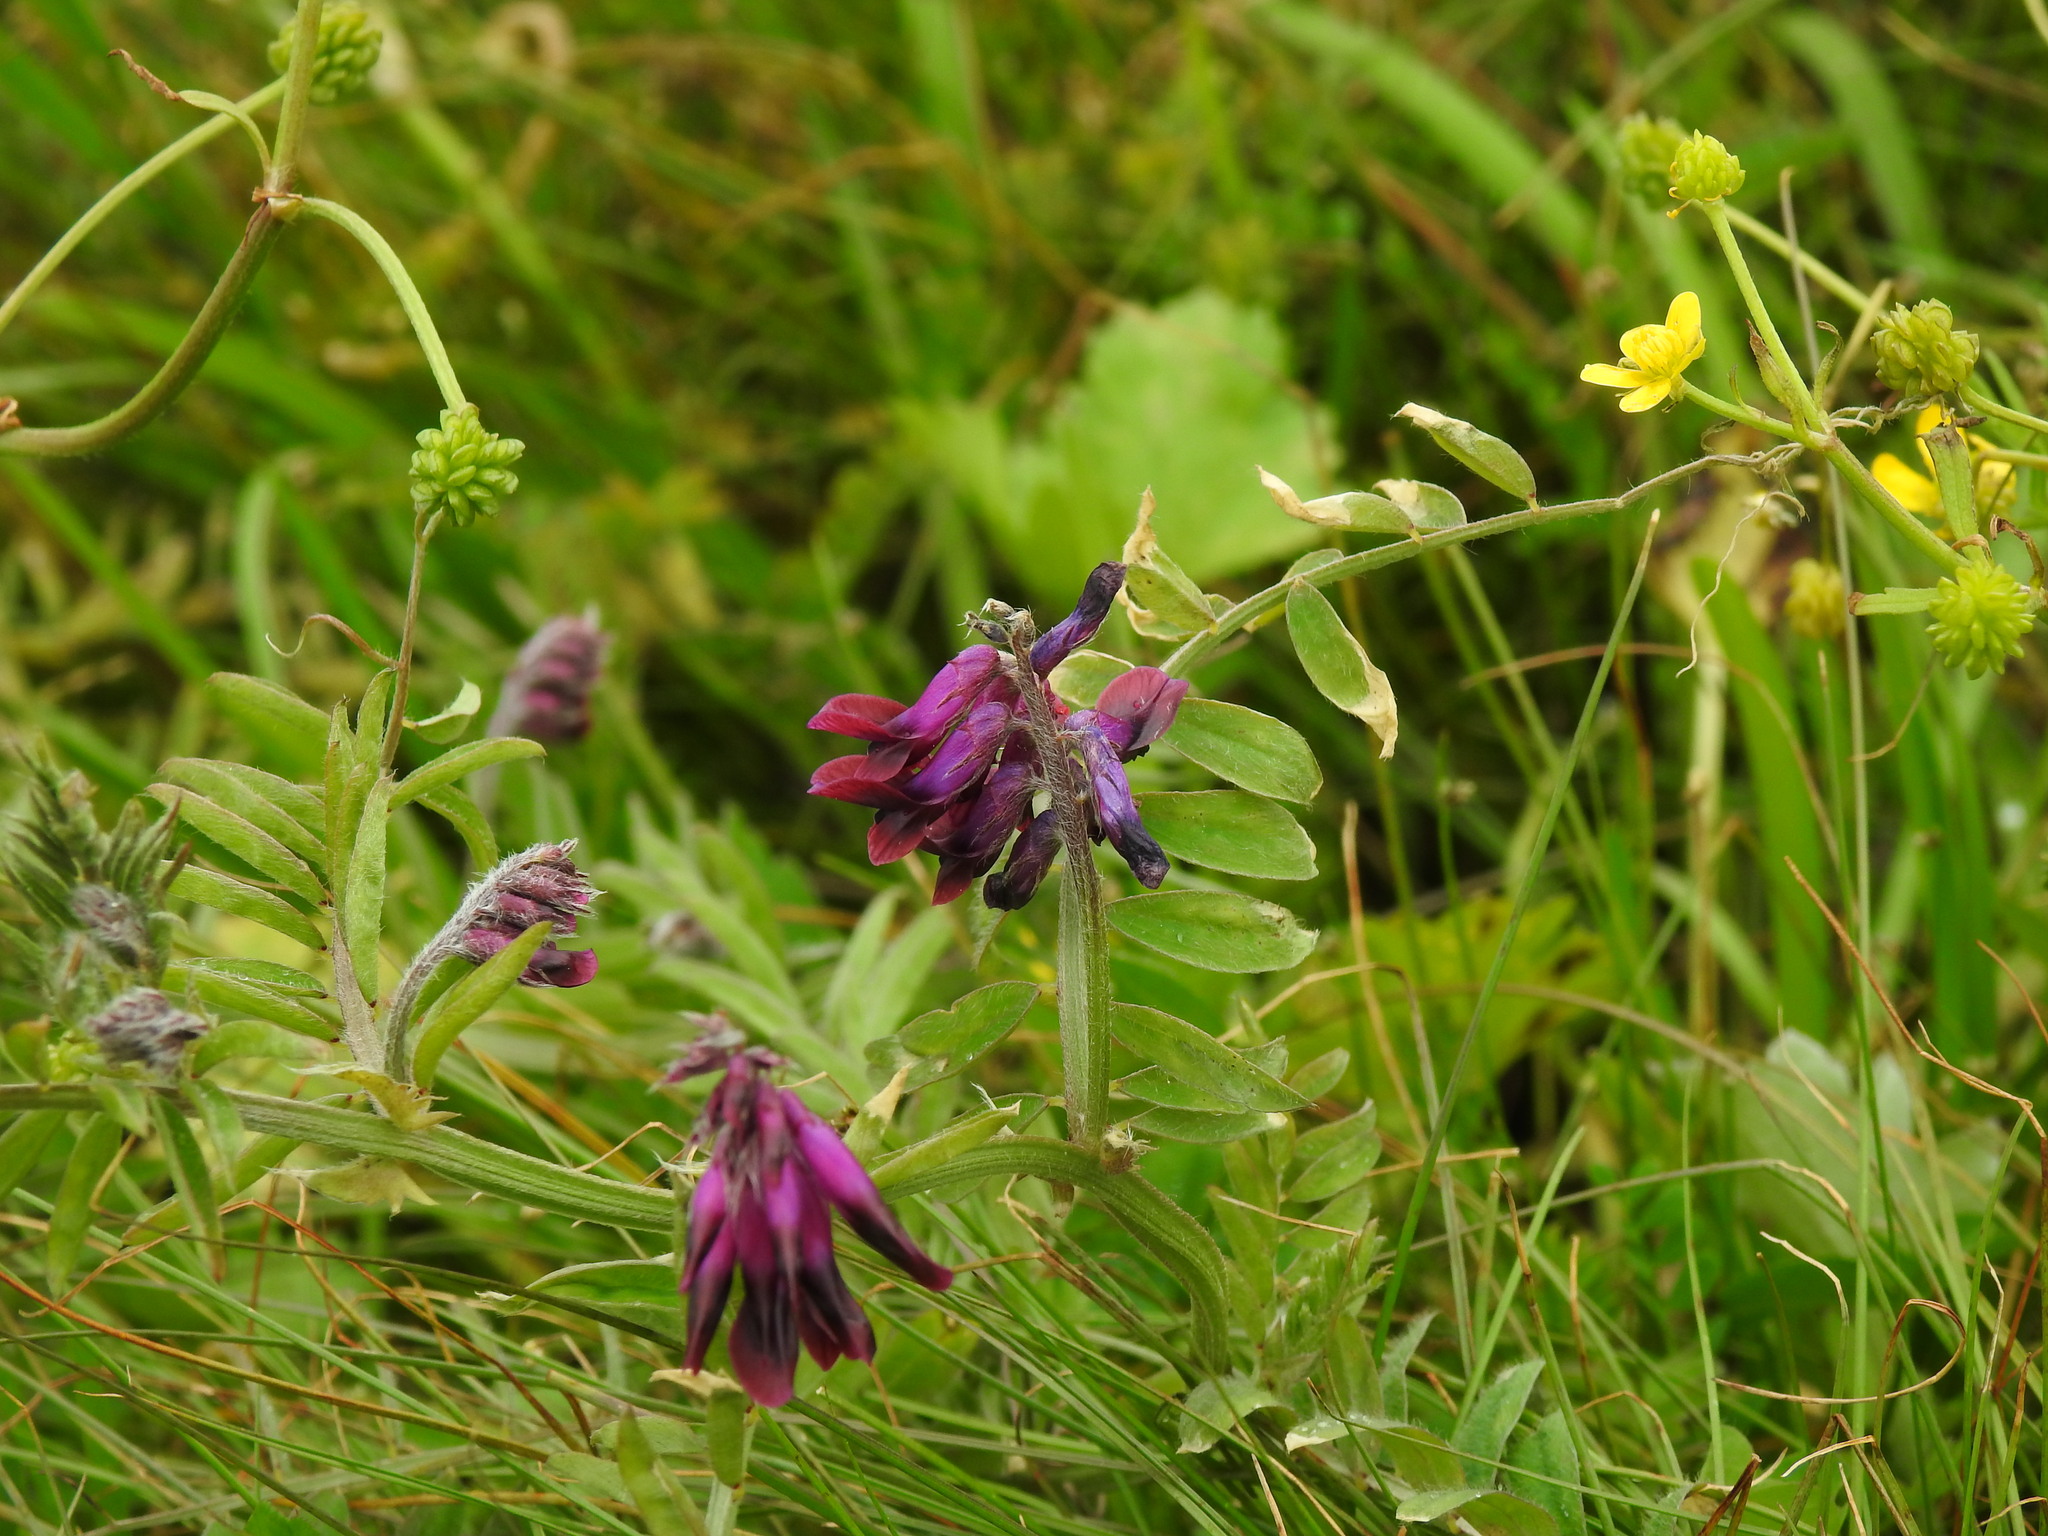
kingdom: Plantae
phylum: Tracheophyta
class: Magnoliopsida
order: Fabales
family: Fabaceae
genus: Vicia
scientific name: Vicia benghalensis
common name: Purple vetch
